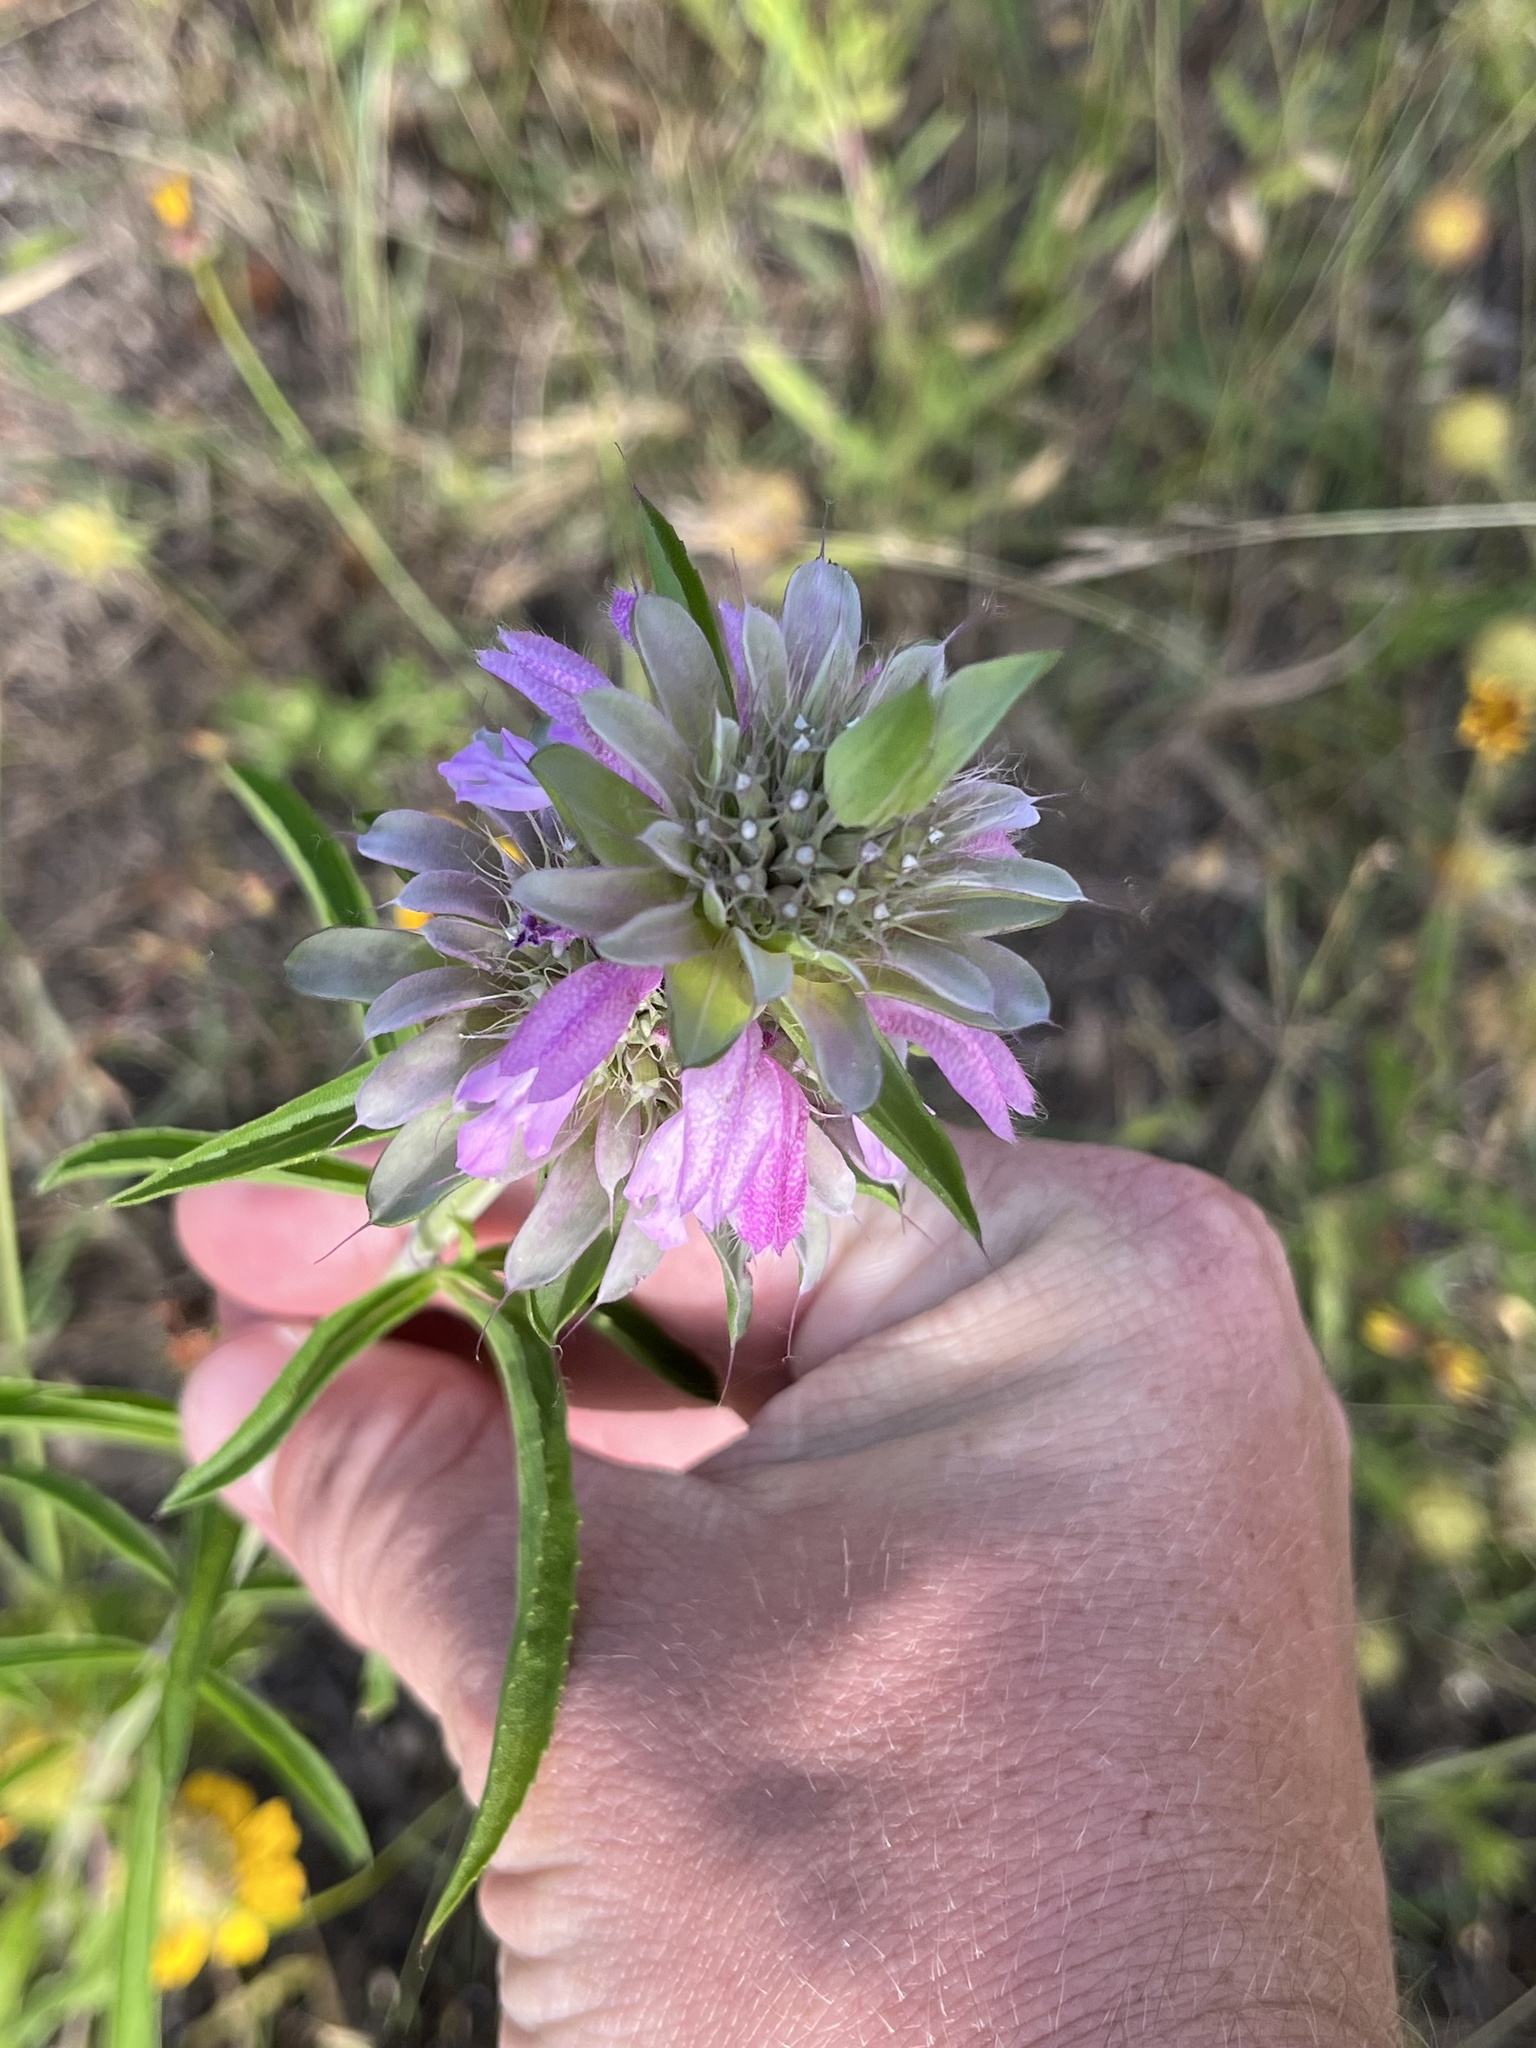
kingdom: Plantae
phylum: Tracheophyta
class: Magnoliopsida
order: Lamiales
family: Lamiaceae
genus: Monarda
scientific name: Monarda citriodora
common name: Lemon beebalm
